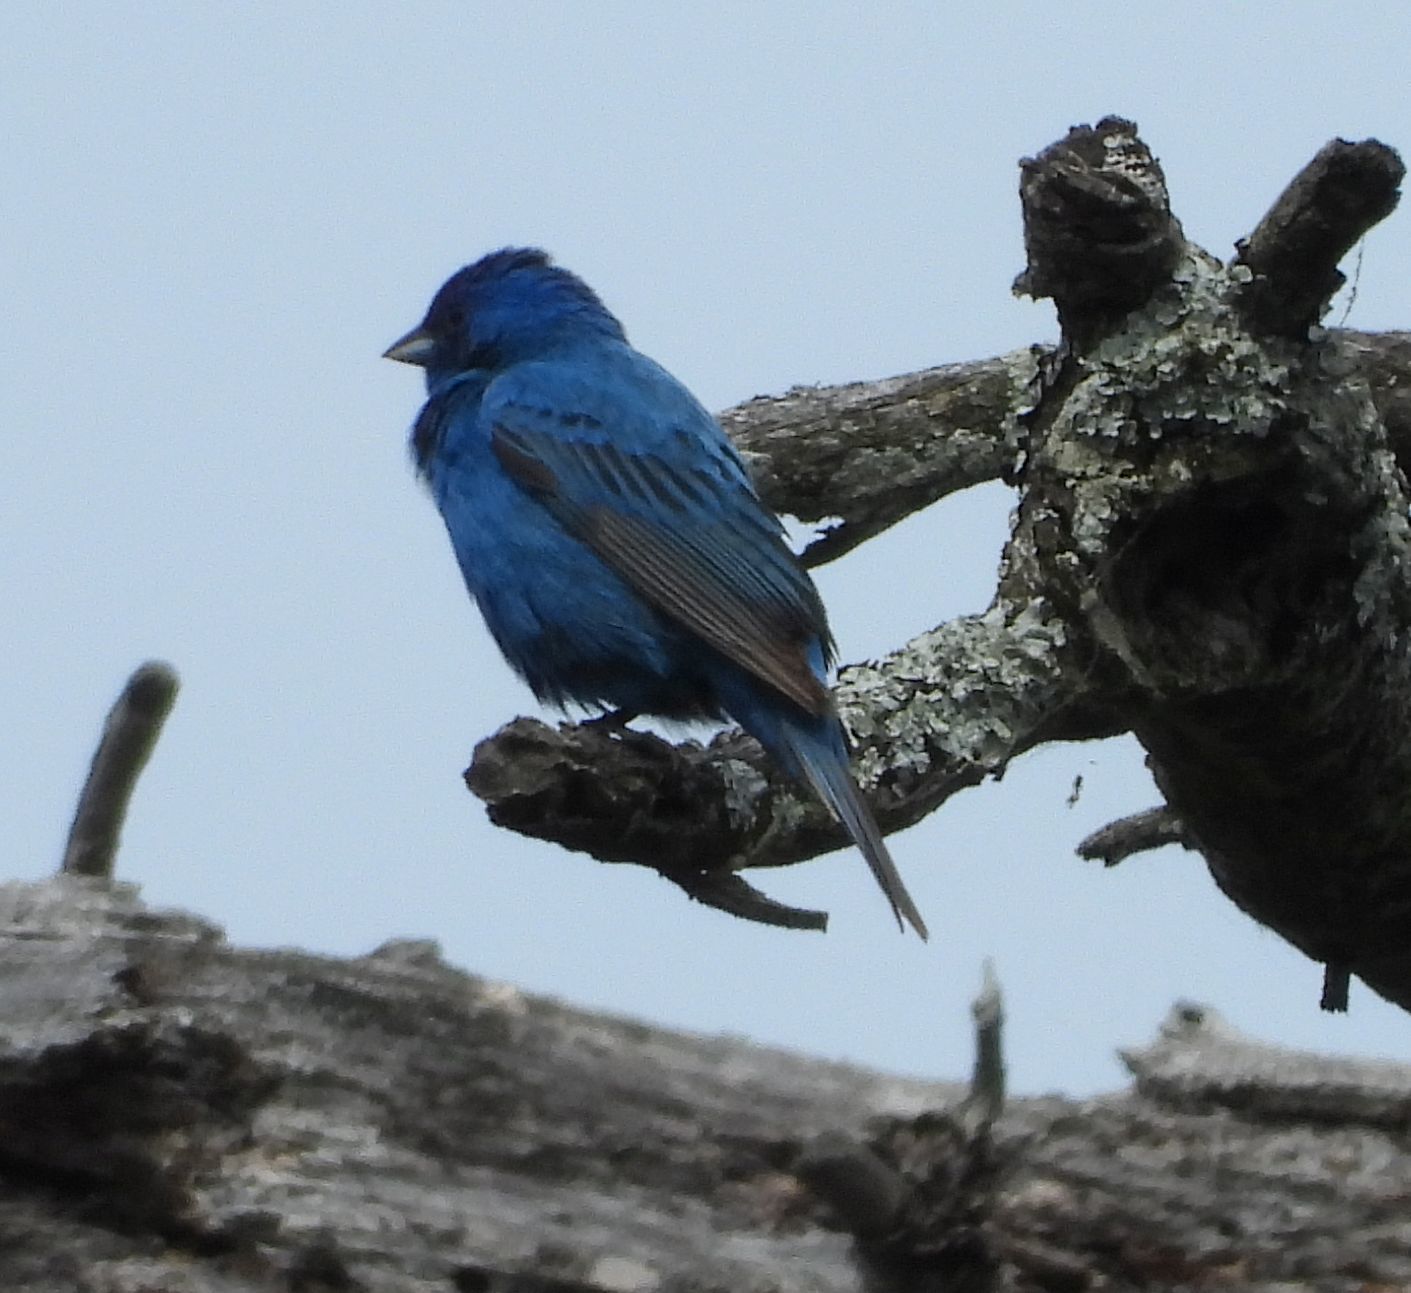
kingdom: Animalia
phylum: Chordata
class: Aves
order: Passeriformes
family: Cardinalidae
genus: Passerina
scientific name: Passerina cyanea
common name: Indigo bunting
